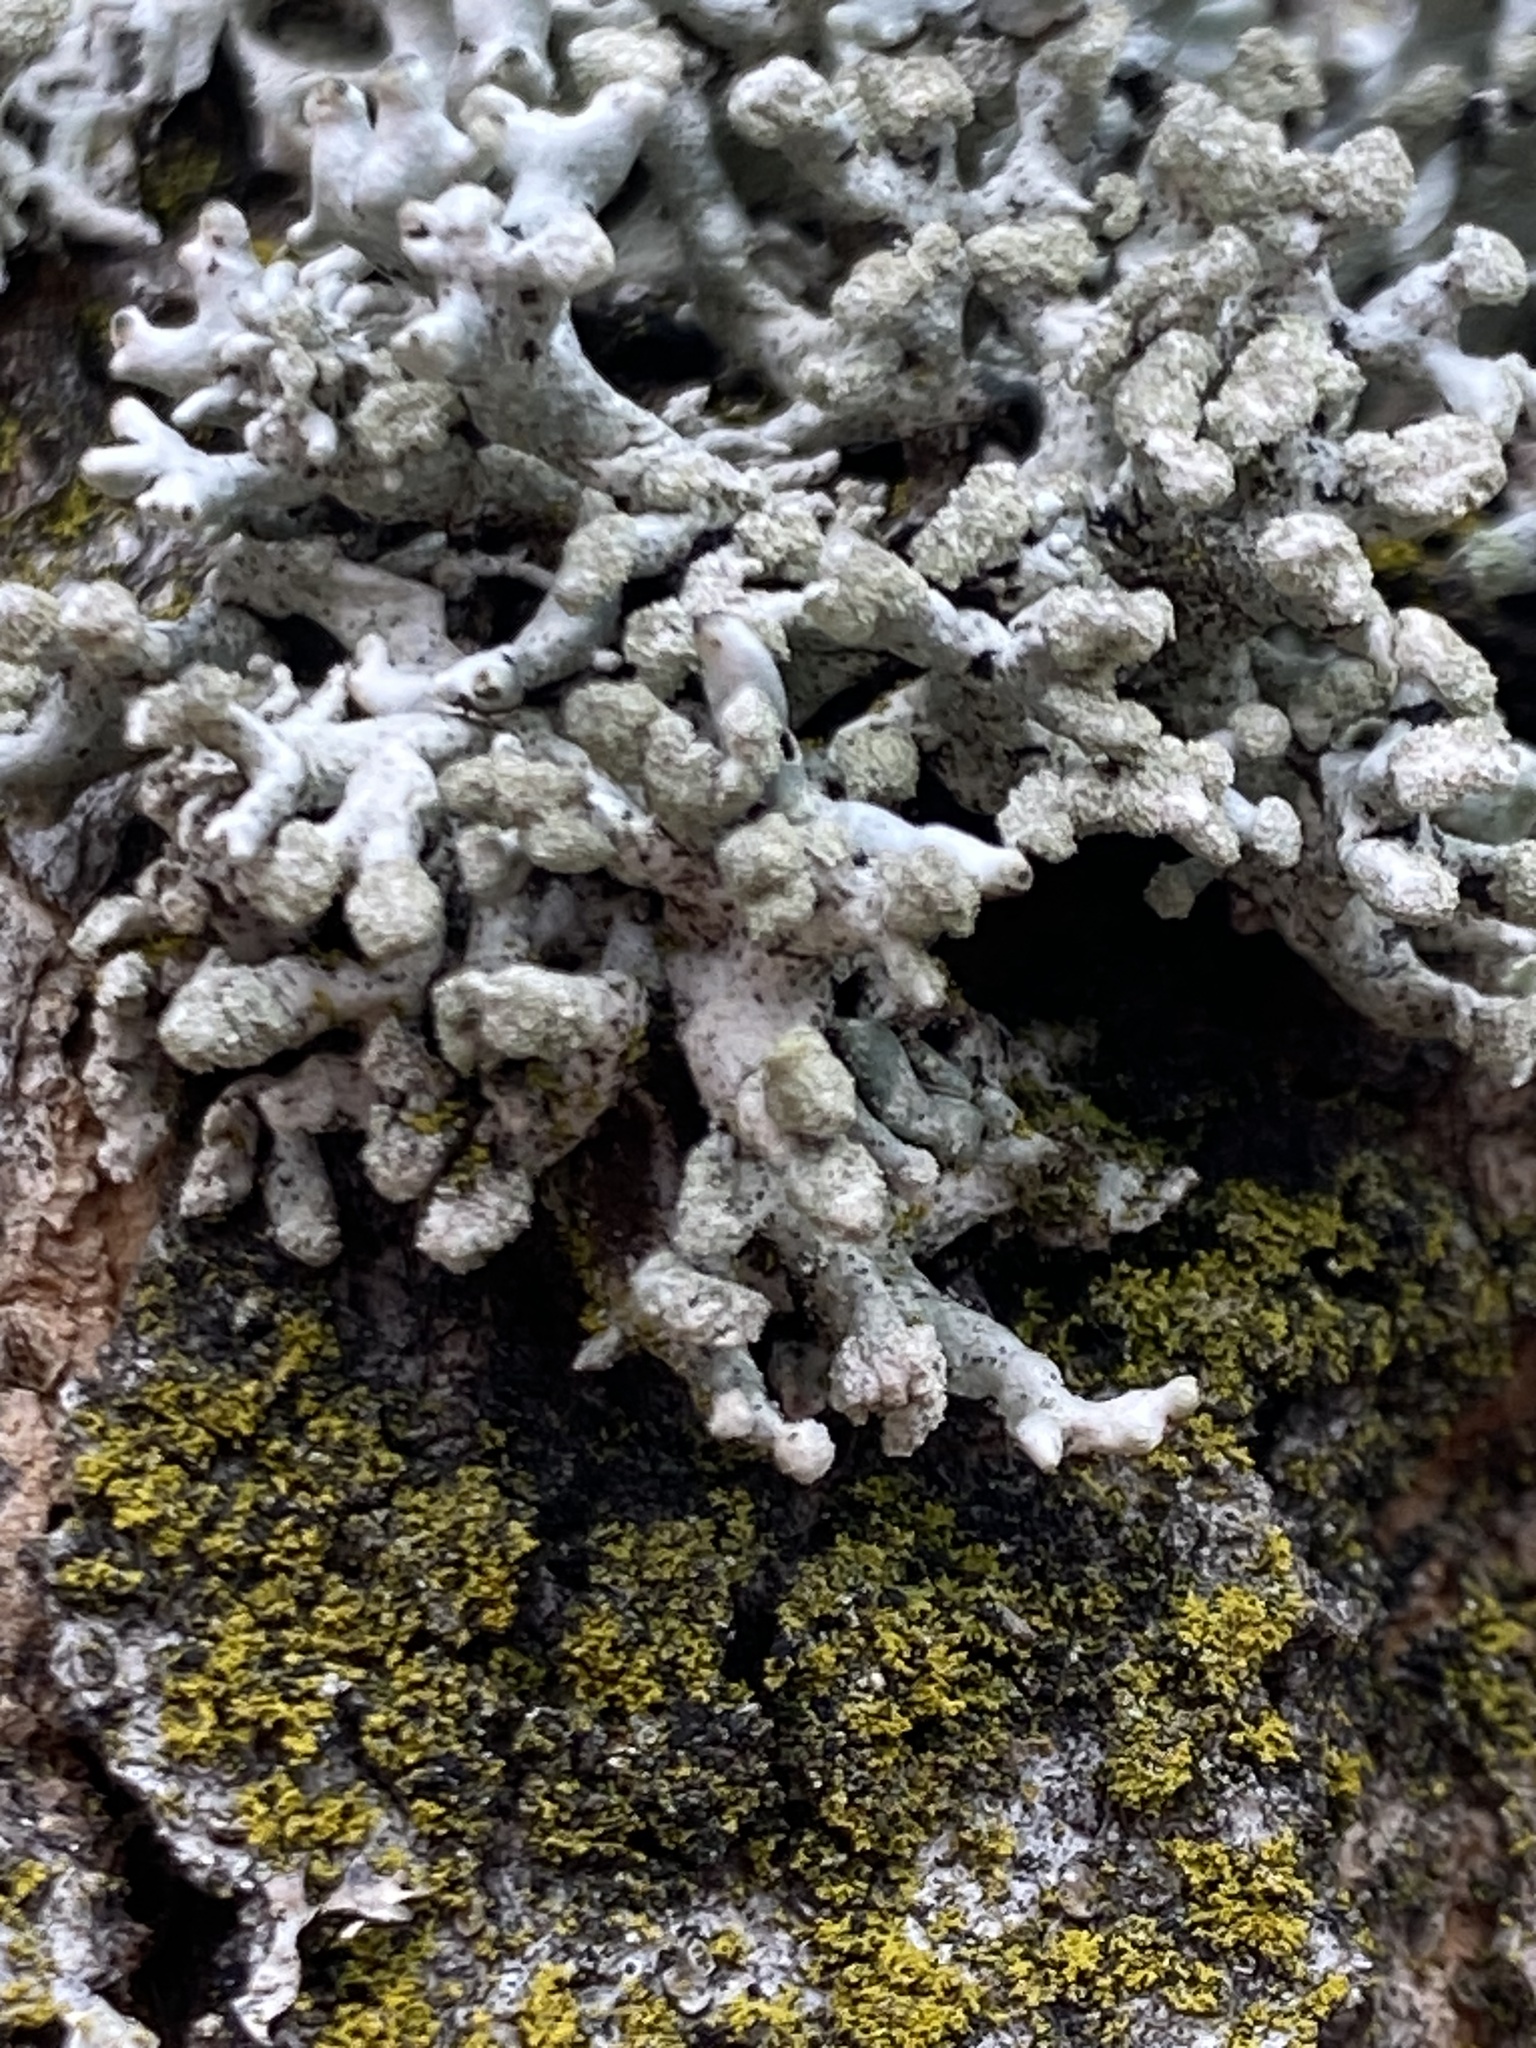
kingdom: Fungi
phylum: Ascomycota
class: Lecanoromycetes
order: Lecanorales
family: Parmeliaceae
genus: Hypogymnia
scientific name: Hypogymnia tubulosa
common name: Powder-headed tube lichen
